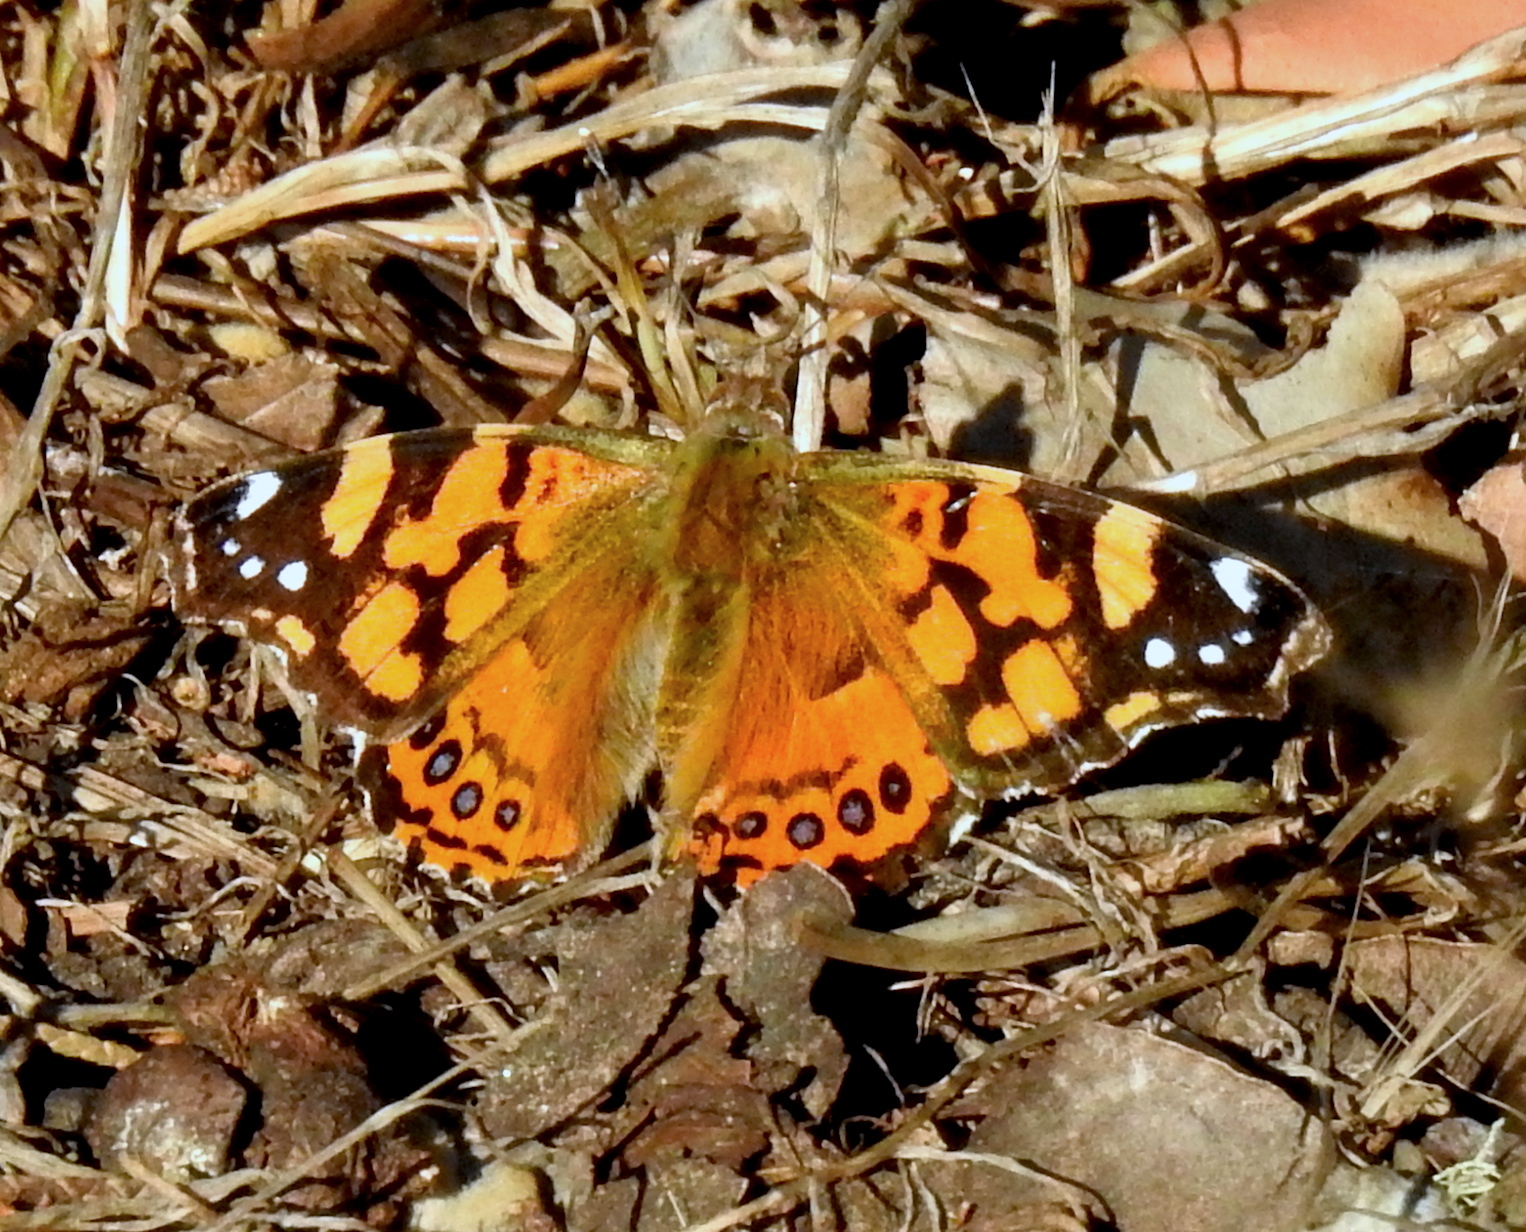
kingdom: Animalia
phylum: Arthropoda
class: Insecta
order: Lepidoptera
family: Nymphalidae
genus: Vanessa
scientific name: Vanessa annabella
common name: West coast lady
